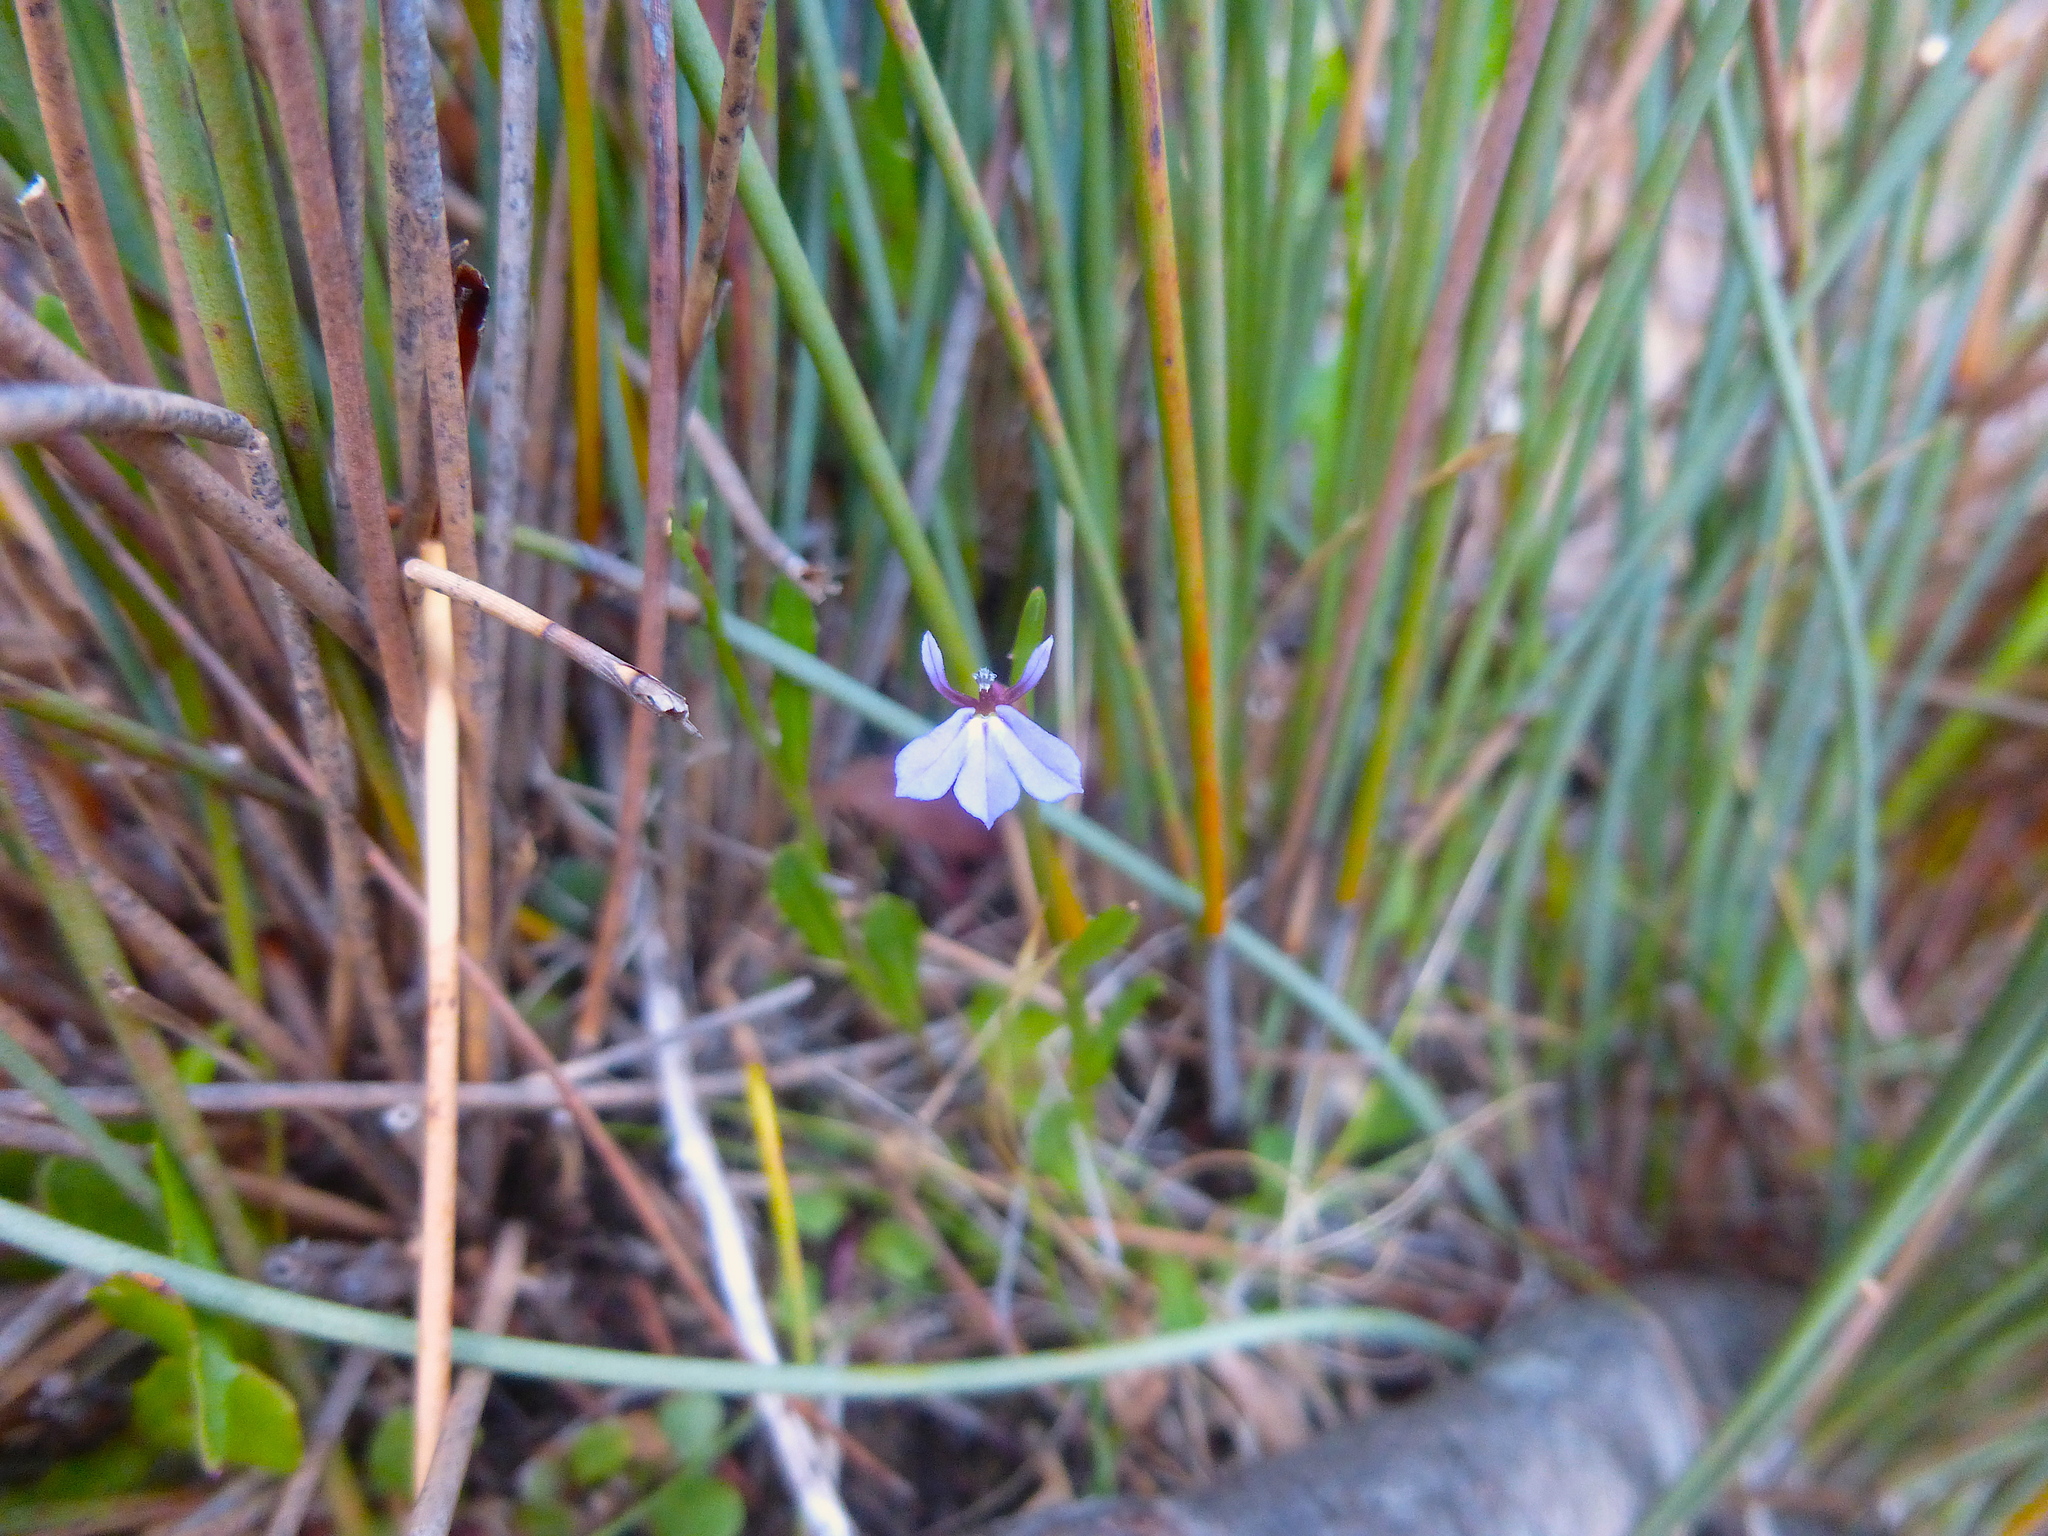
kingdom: Plantae
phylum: Tracheophyta
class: Magnoliopsida
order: Asterales
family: Campanulaceae
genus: Lobelia
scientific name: Lobelia anceps
